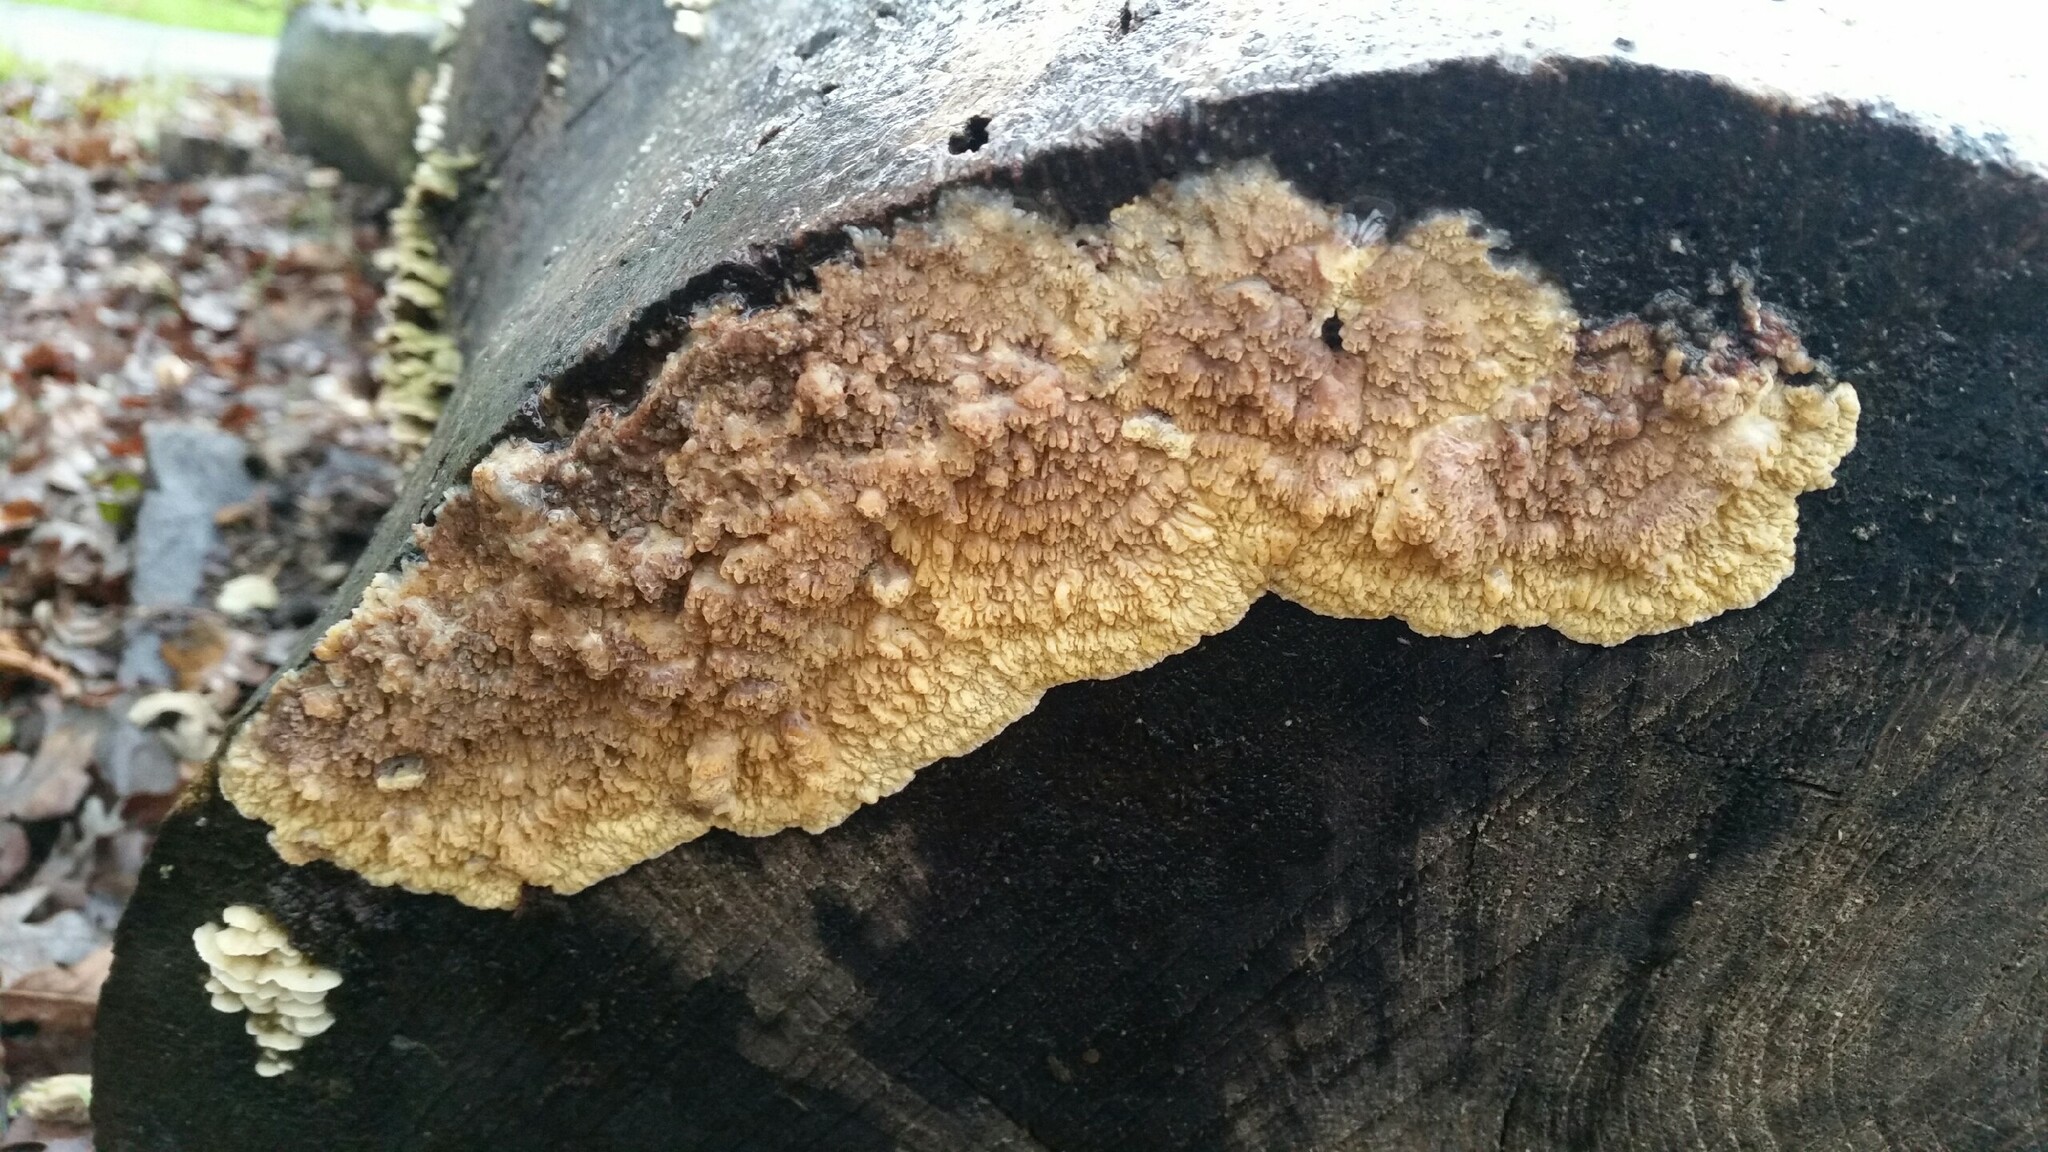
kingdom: Fungi
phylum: Basidiomycota
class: Agaricomycetes
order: Polyporales
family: Meruliaceae
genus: Phlebia
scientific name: Phlebia radiata
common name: Wrinkled crust
